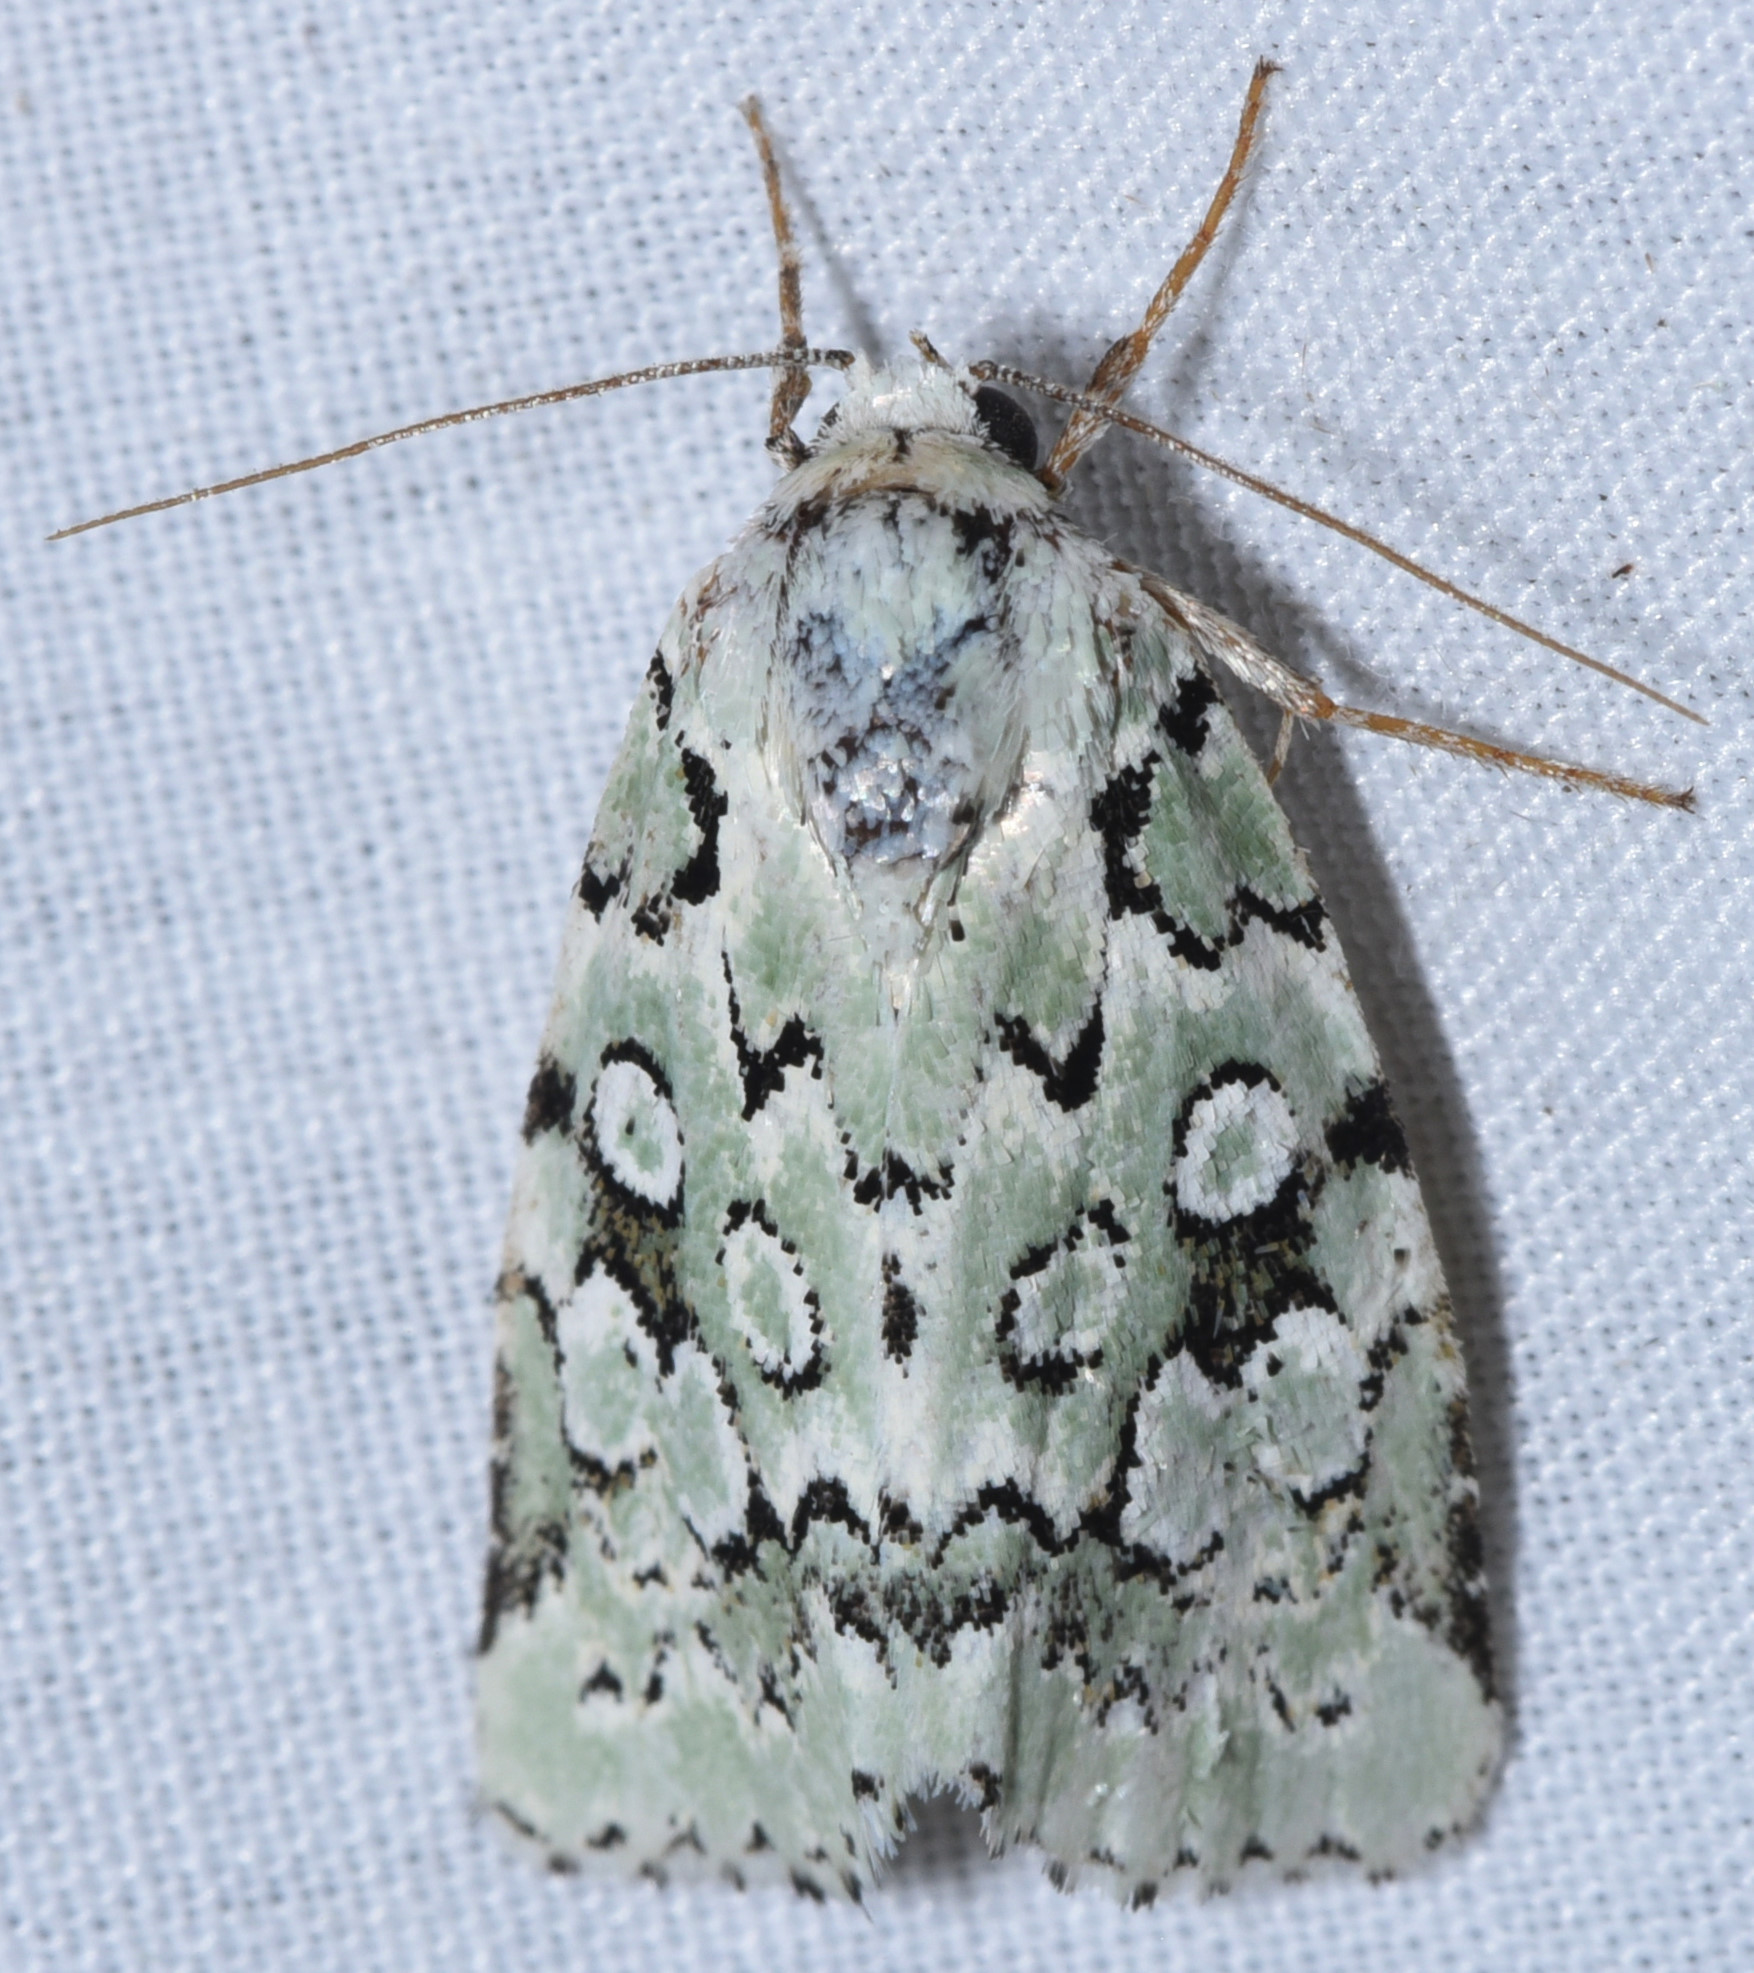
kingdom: Animalia
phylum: Arthropoda
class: Insecta
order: Lepidoptera
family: Noctuidae
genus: Bryolymnia
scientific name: Bryolymnia viridata
